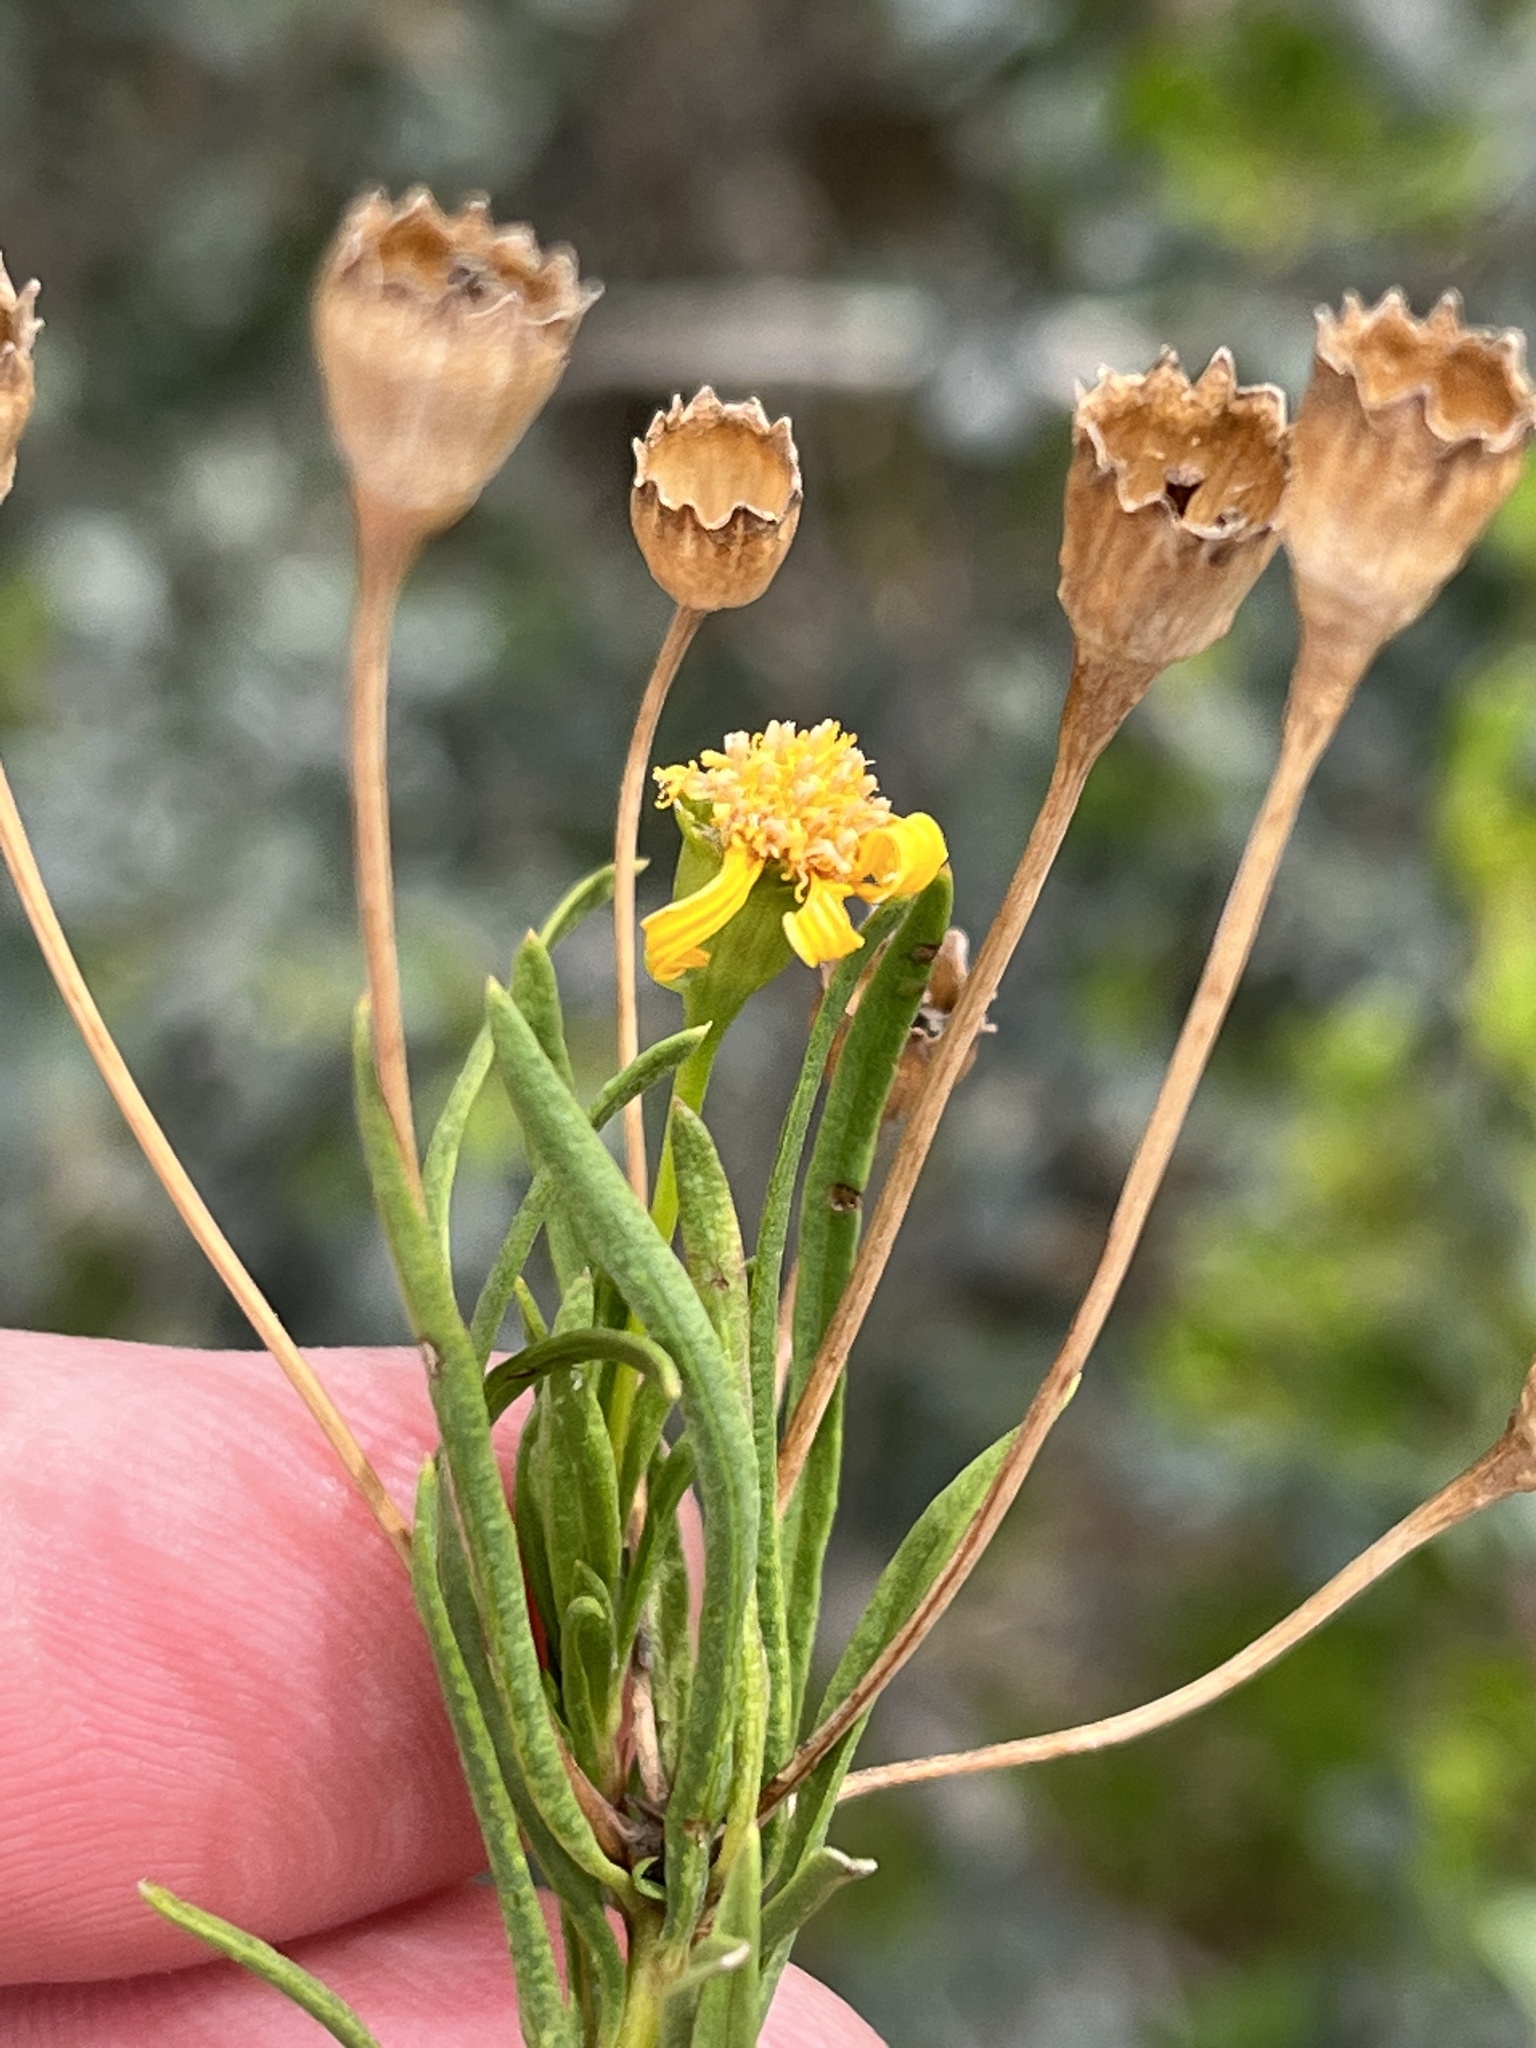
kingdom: Plantae
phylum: Tracheophyta
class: Magnoliopsida
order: Asterales
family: Asteraceae
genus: Euryops
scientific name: Euryops linearis
